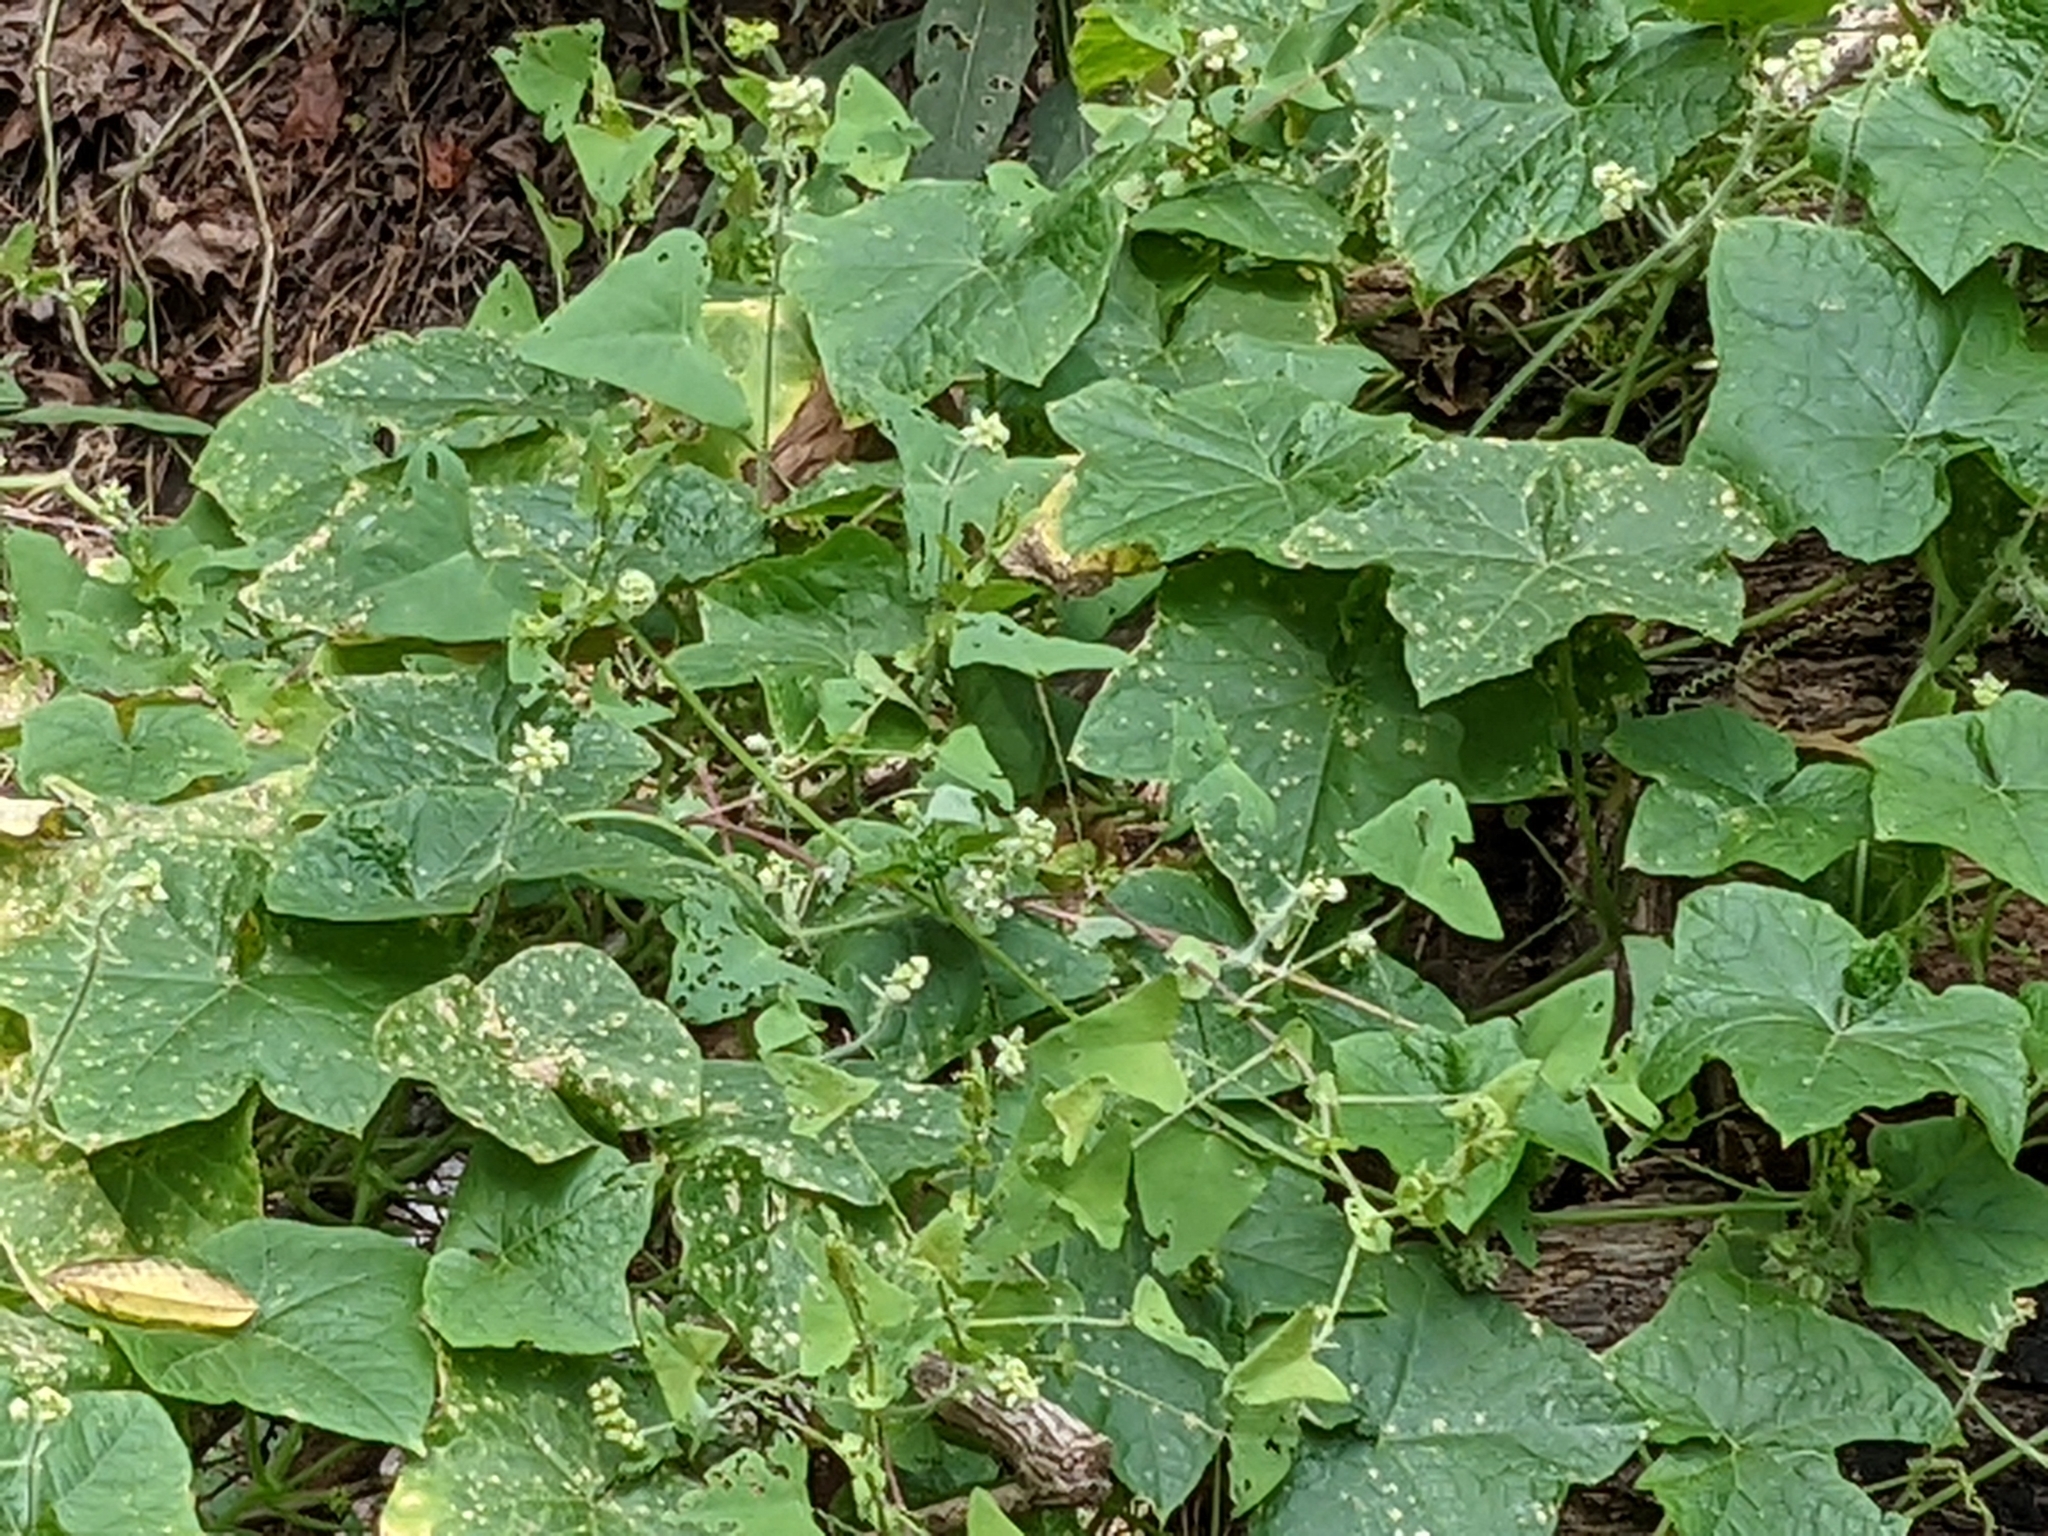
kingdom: Plantae
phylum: Tracheophyta
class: Magnoliopsida
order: Cucurbitales
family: Cucurbitaceae
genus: Sicyos
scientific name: Sicyos angulatus
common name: Angled burr cucumber
